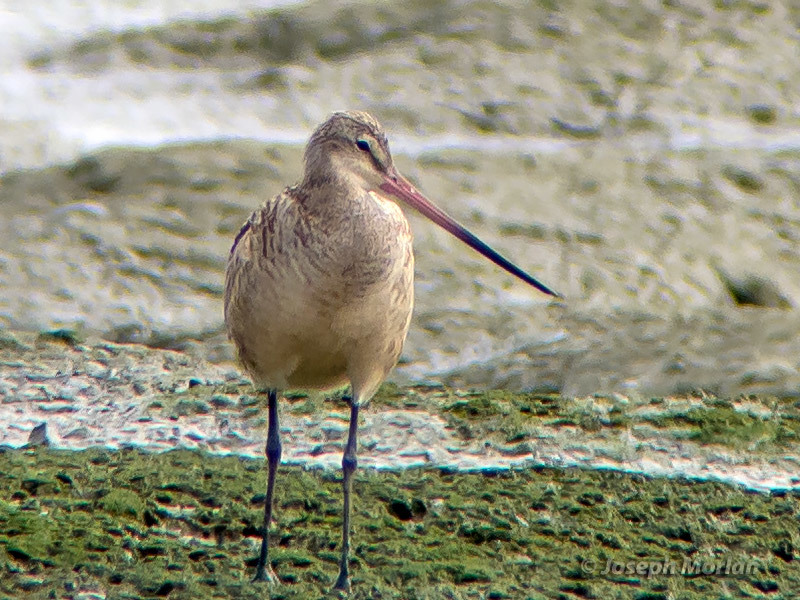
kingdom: Animalia
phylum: Chordata
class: Aves
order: Charadriiformes
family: Scolopacidae
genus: Limosa
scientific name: Limosa fedoa
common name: Marbled godwit
